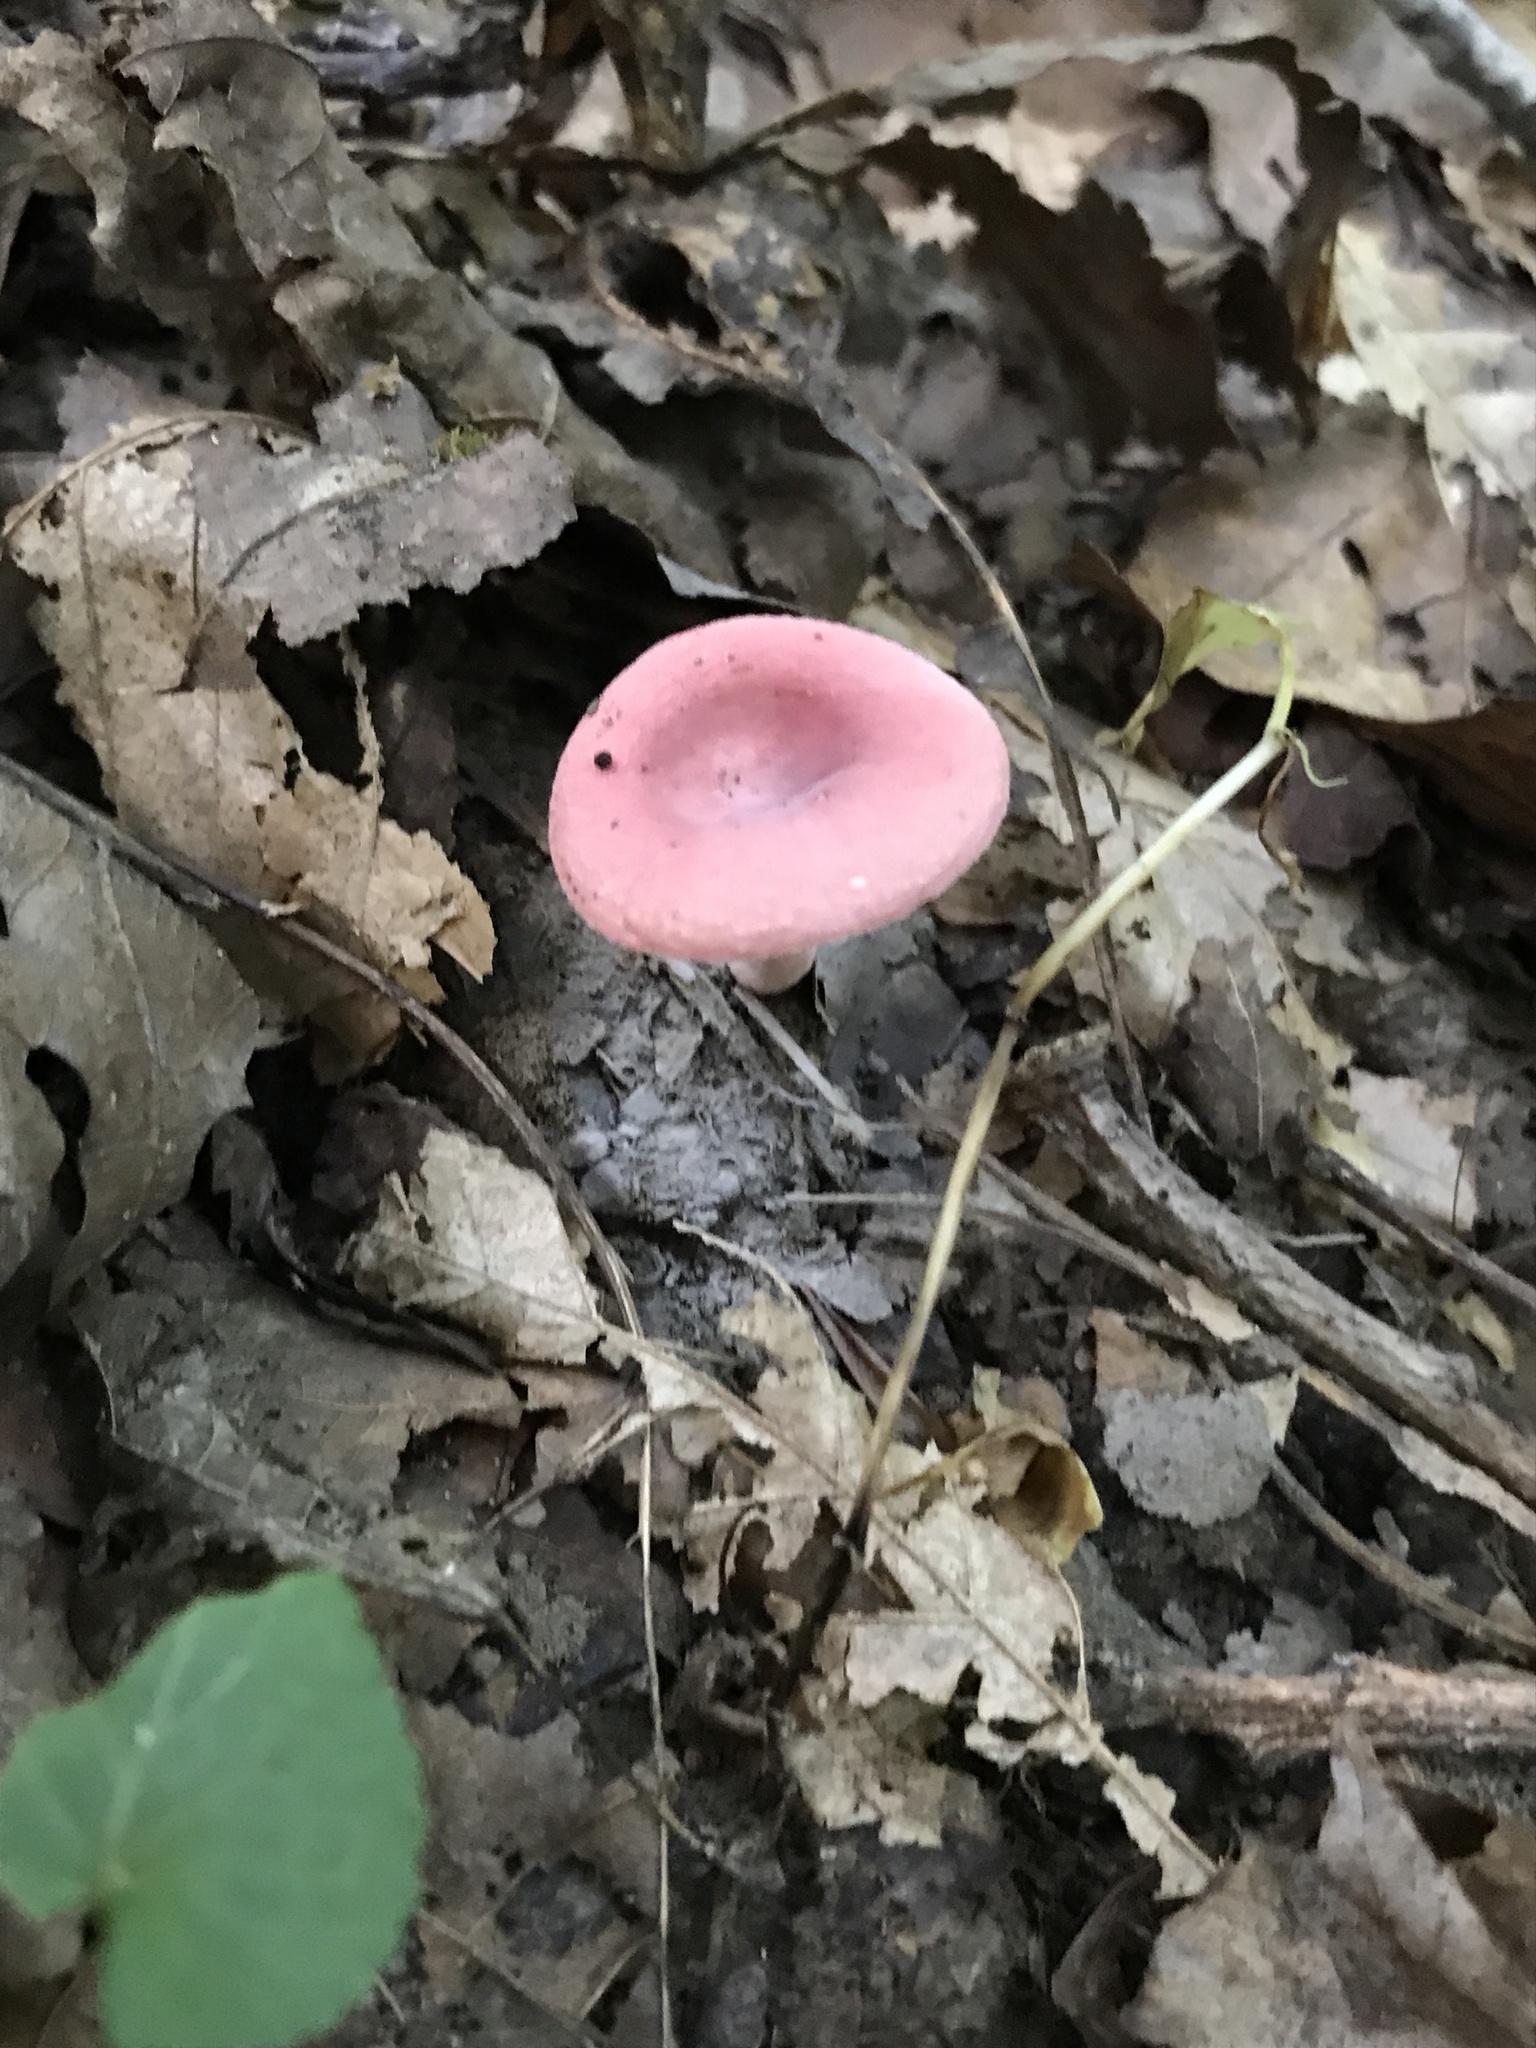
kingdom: Fungi
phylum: Basidiomycota
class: Agaricomycetes
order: Russulales
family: Russulaceae
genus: Russula
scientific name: Russula subtilis
